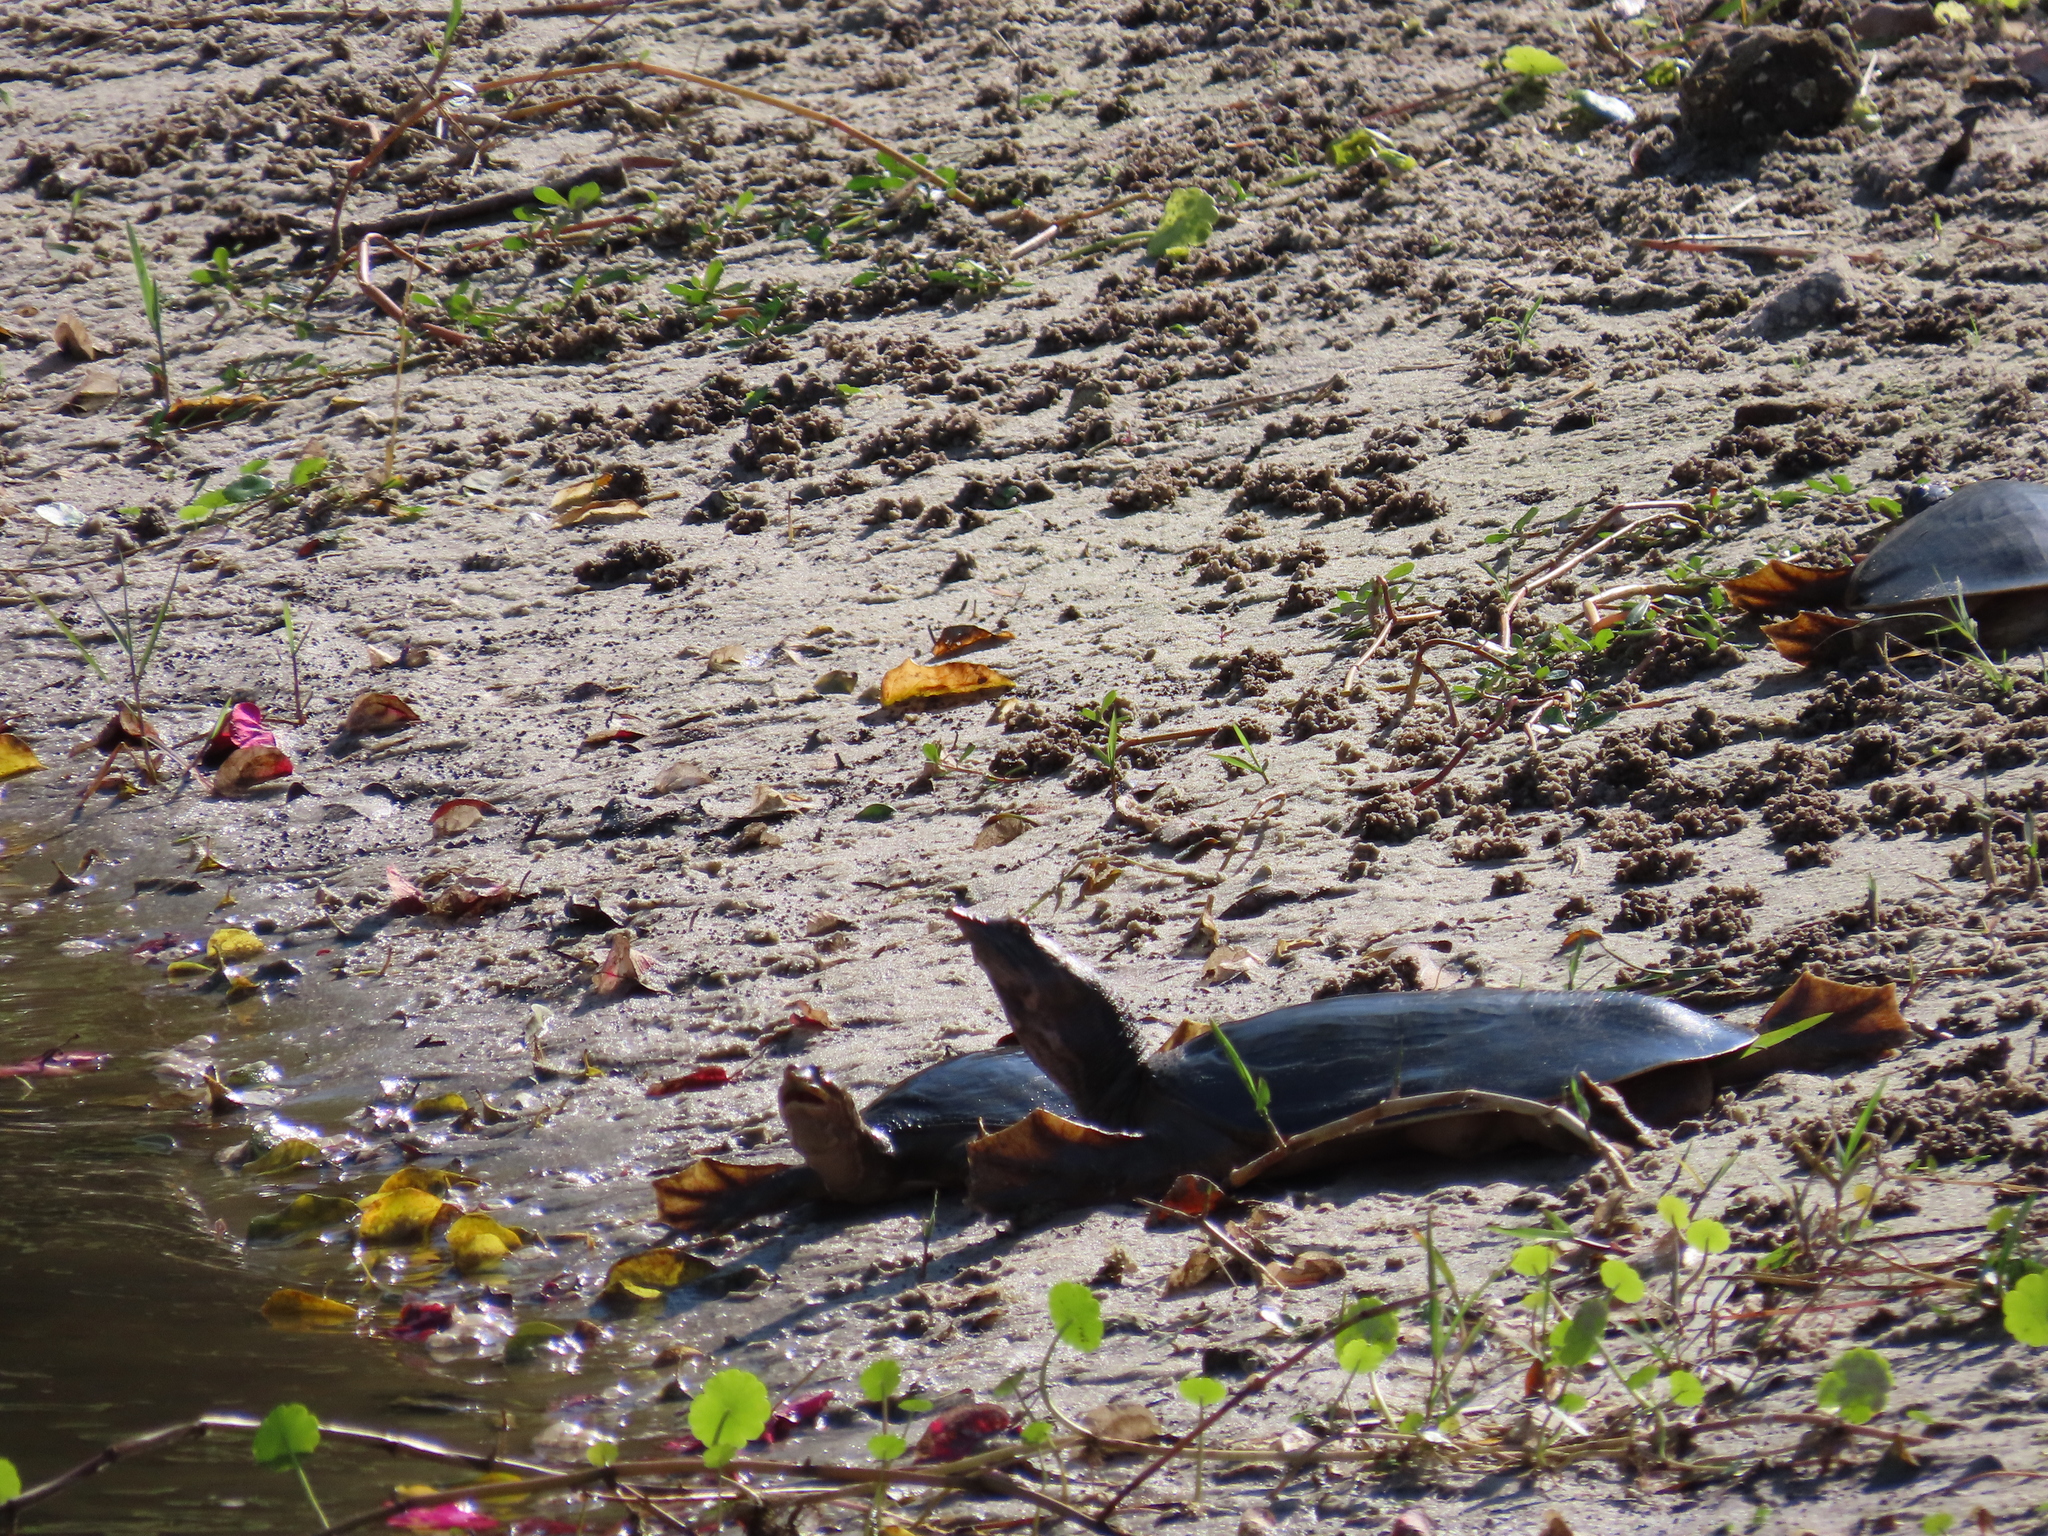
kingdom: Animalia
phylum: Chordata
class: Testudines
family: Trionychidae
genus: Apalone
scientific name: Apalone ferox
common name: Florida softshell turtle
